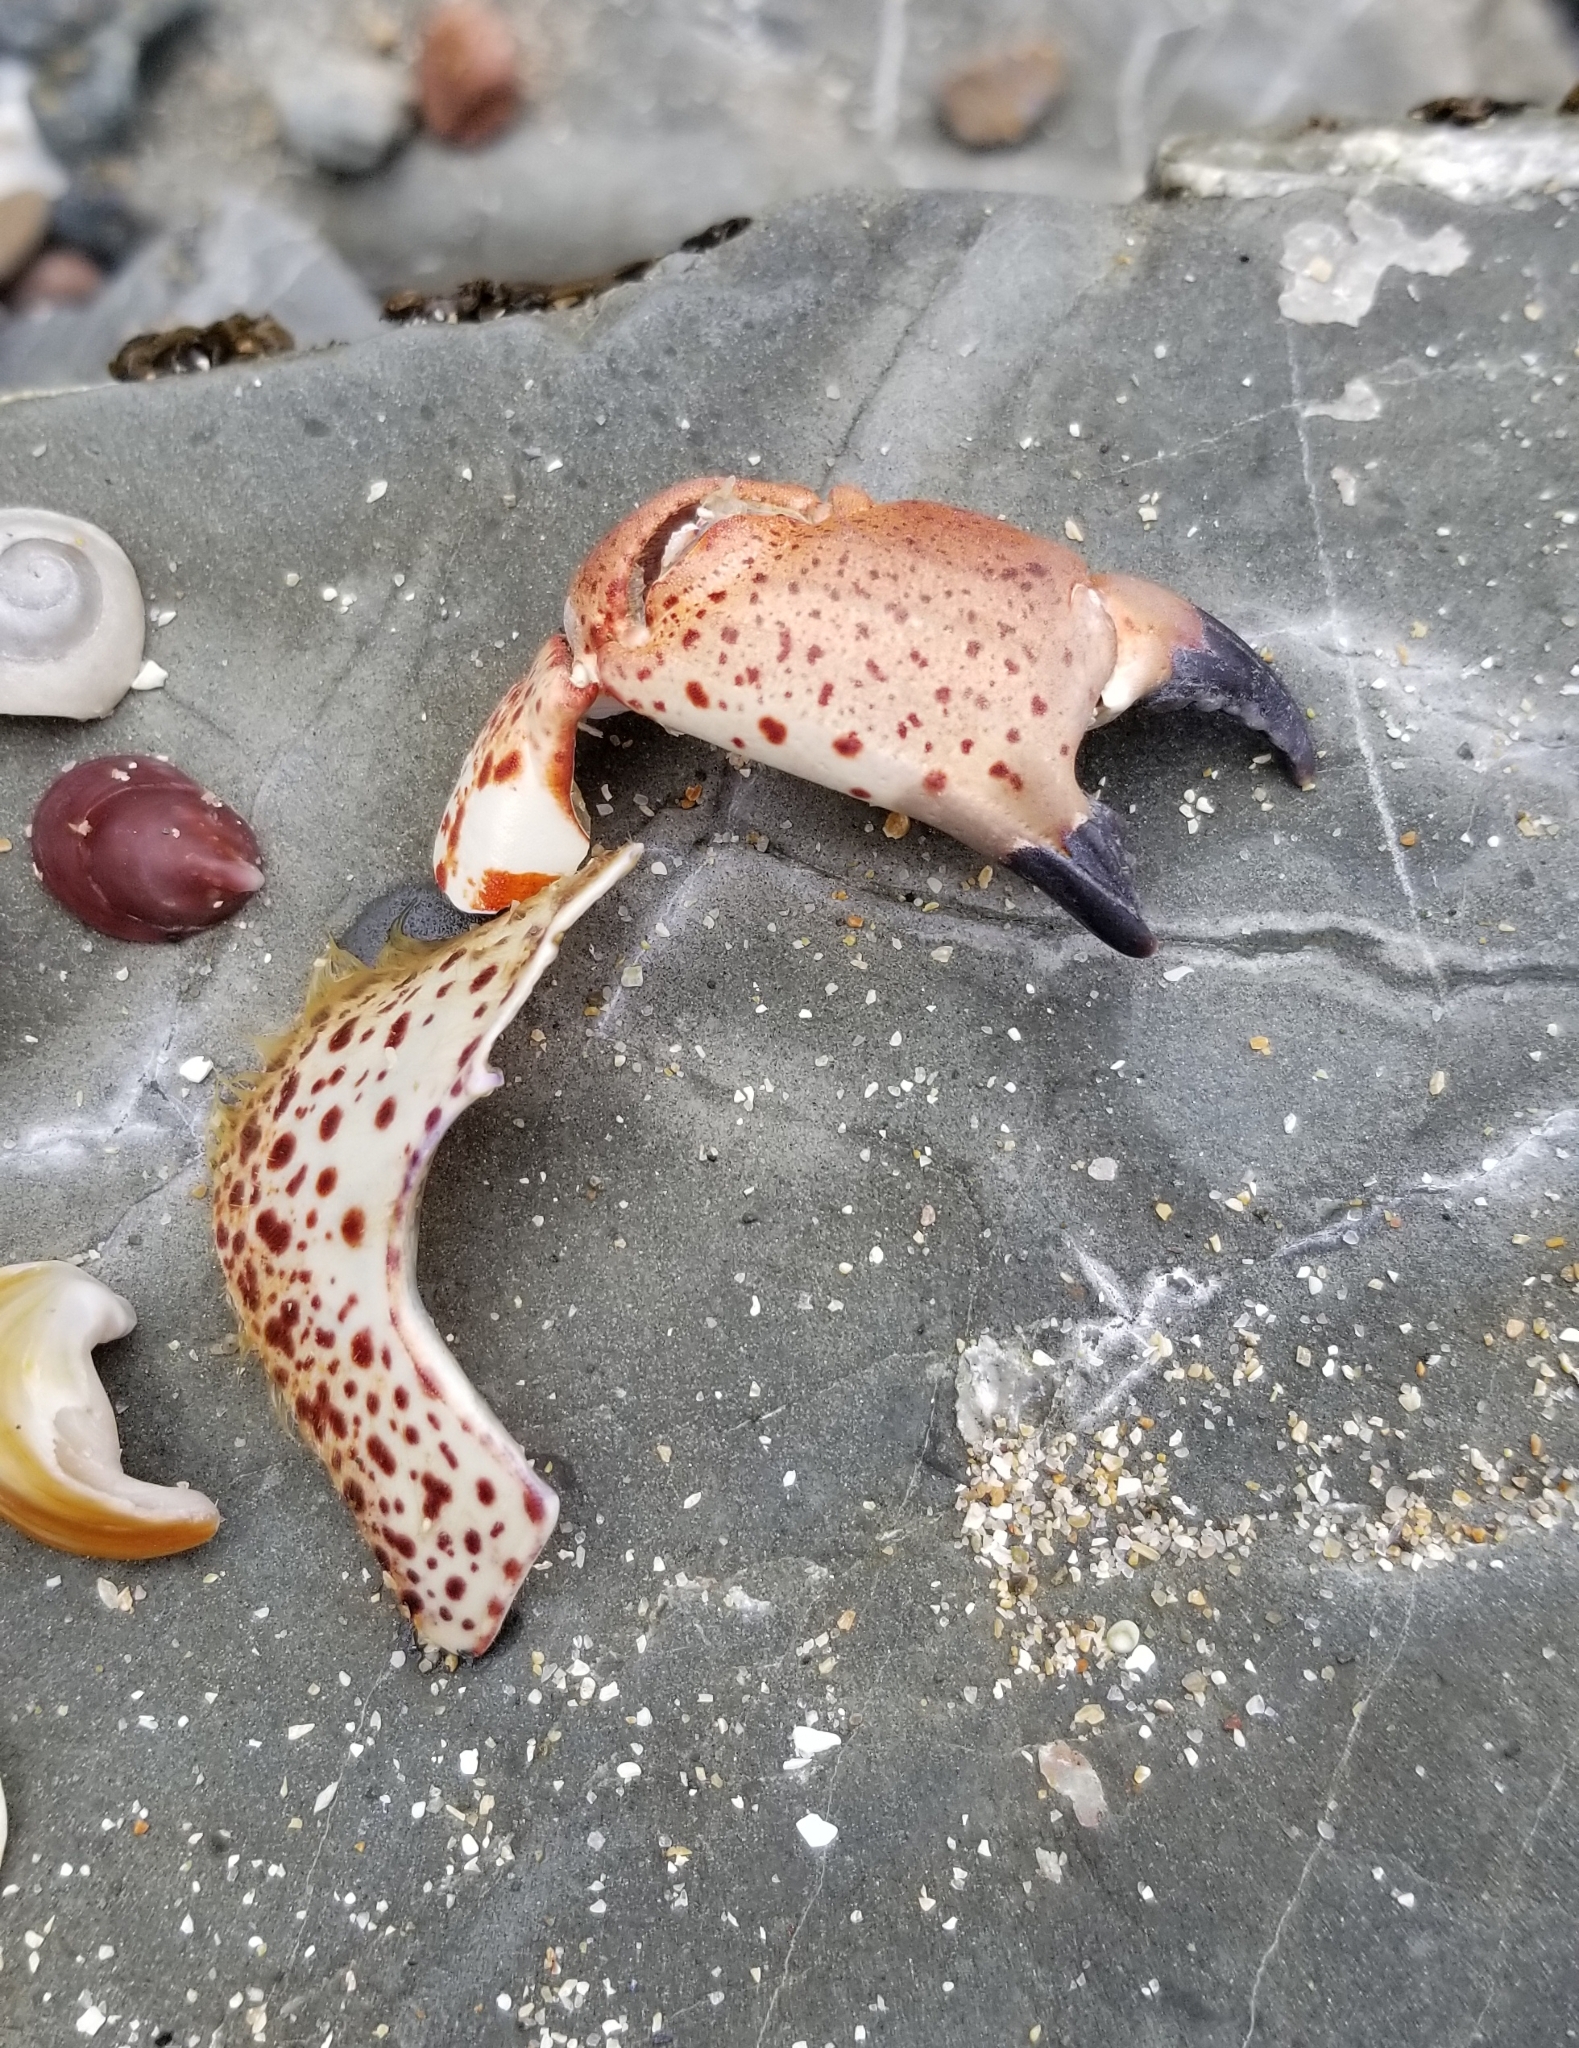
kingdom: Animalia
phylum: Arthropoda
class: Malacostraca
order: Decapoda
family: Cancridae
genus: Romaleon
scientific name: Romaleon antennarium
